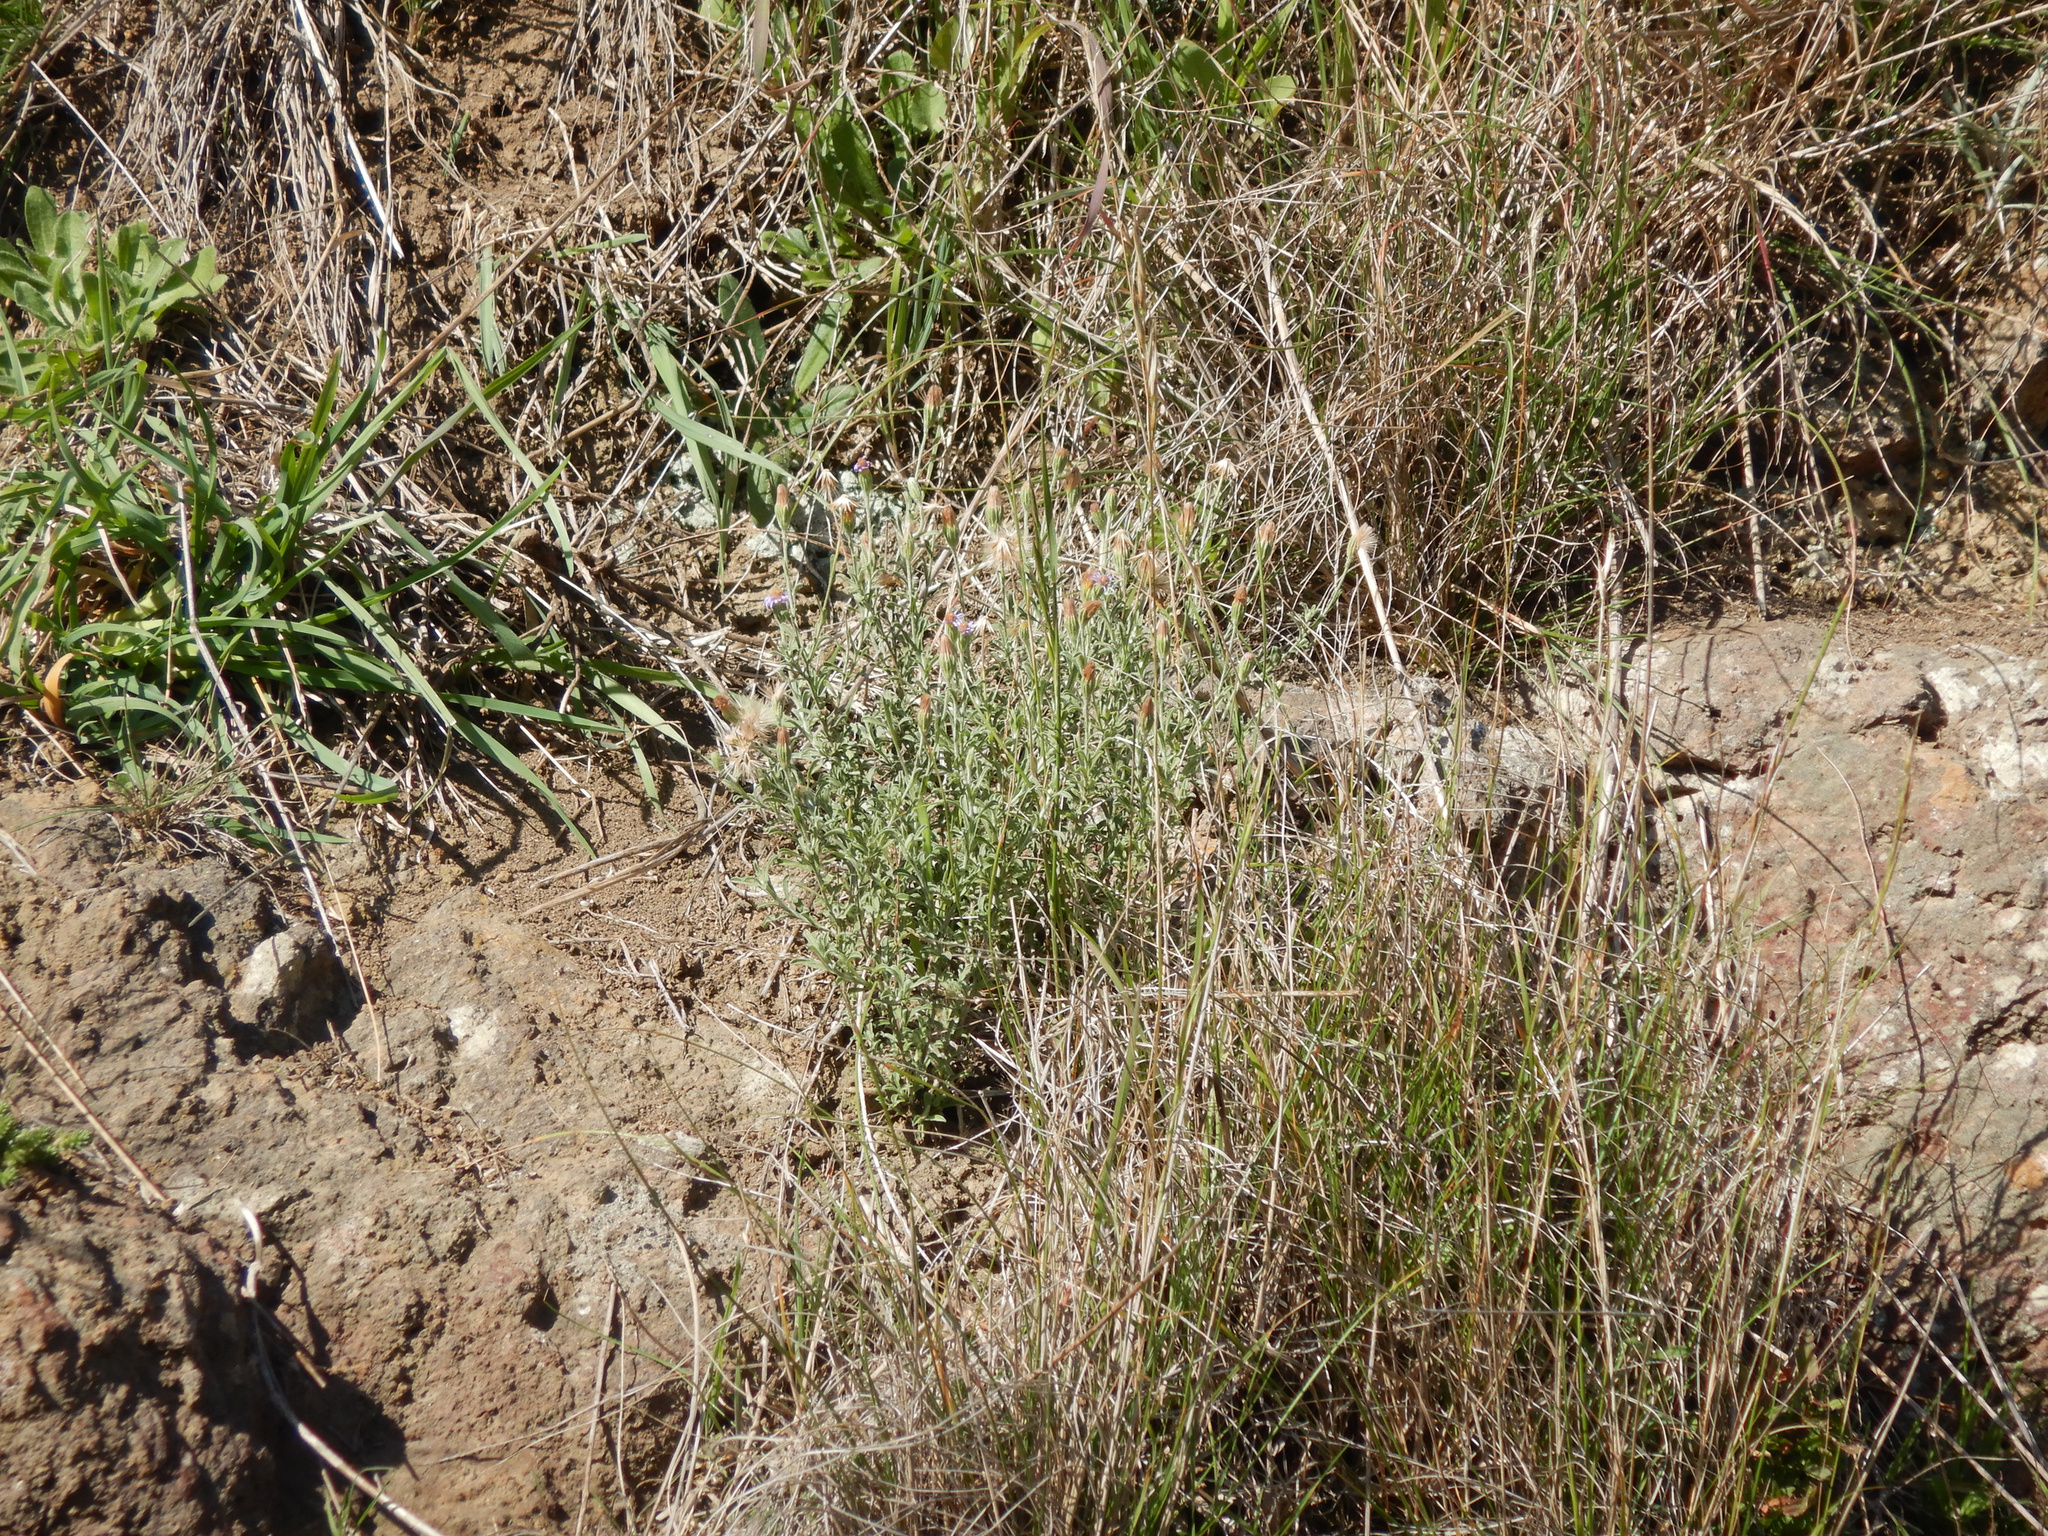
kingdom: Plantae
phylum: Tracheophyta
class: Magnoliopsida
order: Asterales
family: Asteraceae
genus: Vittadinia
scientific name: Vittadinia gracilis
